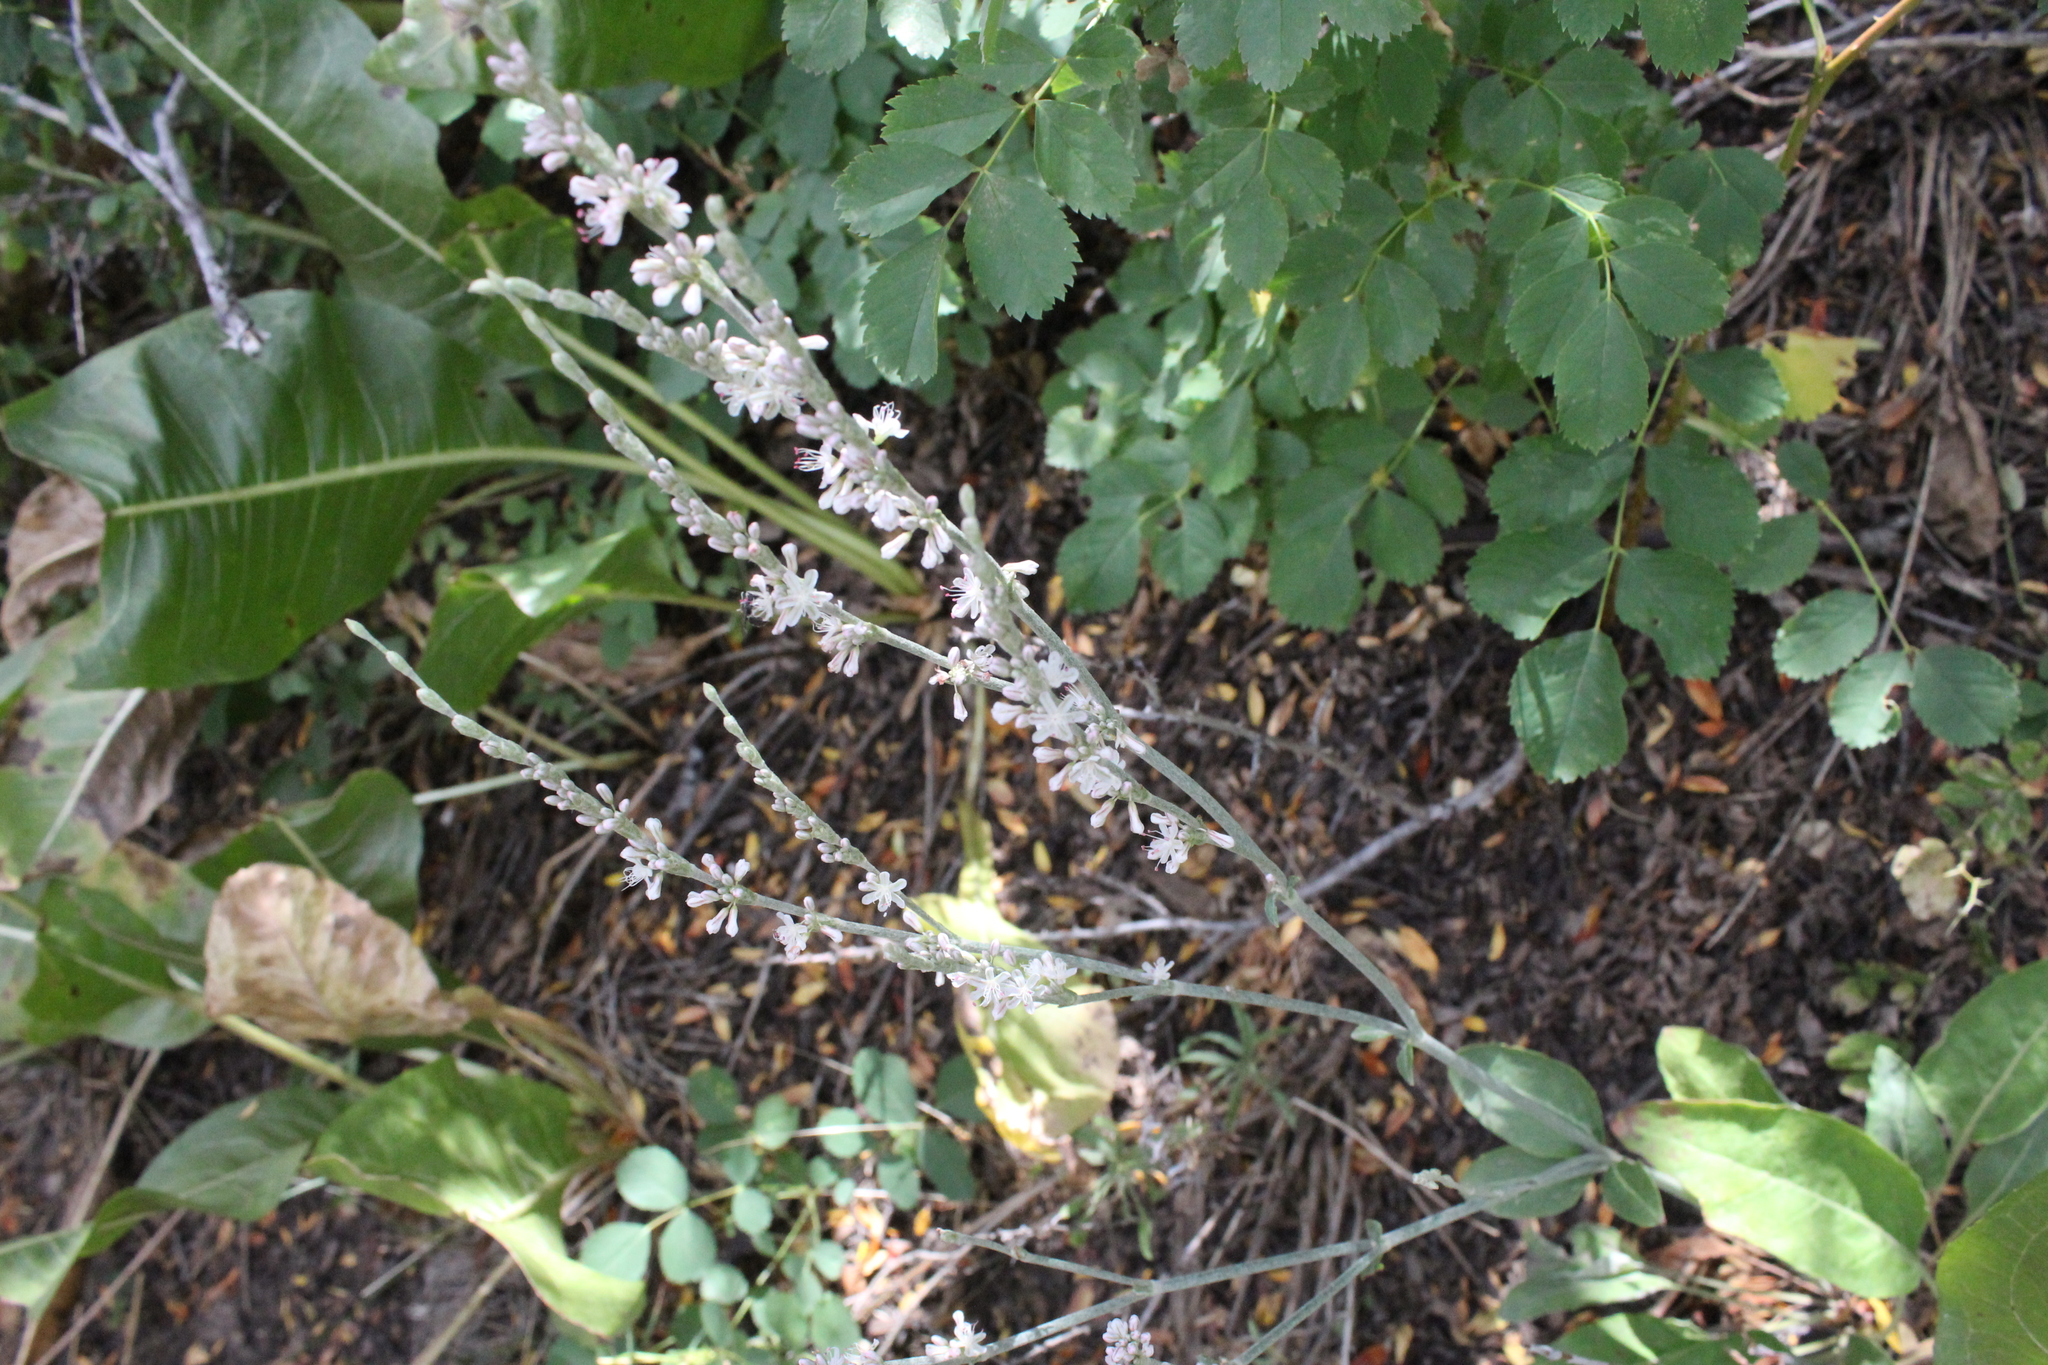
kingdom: Plantae
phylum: Tracheophyta
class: Magnoliopsida
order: Caryophyllales
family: Polygonaceae
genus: Eriogonum
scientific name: Eriogonum racemosum
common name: Redroot wild buckwheat
